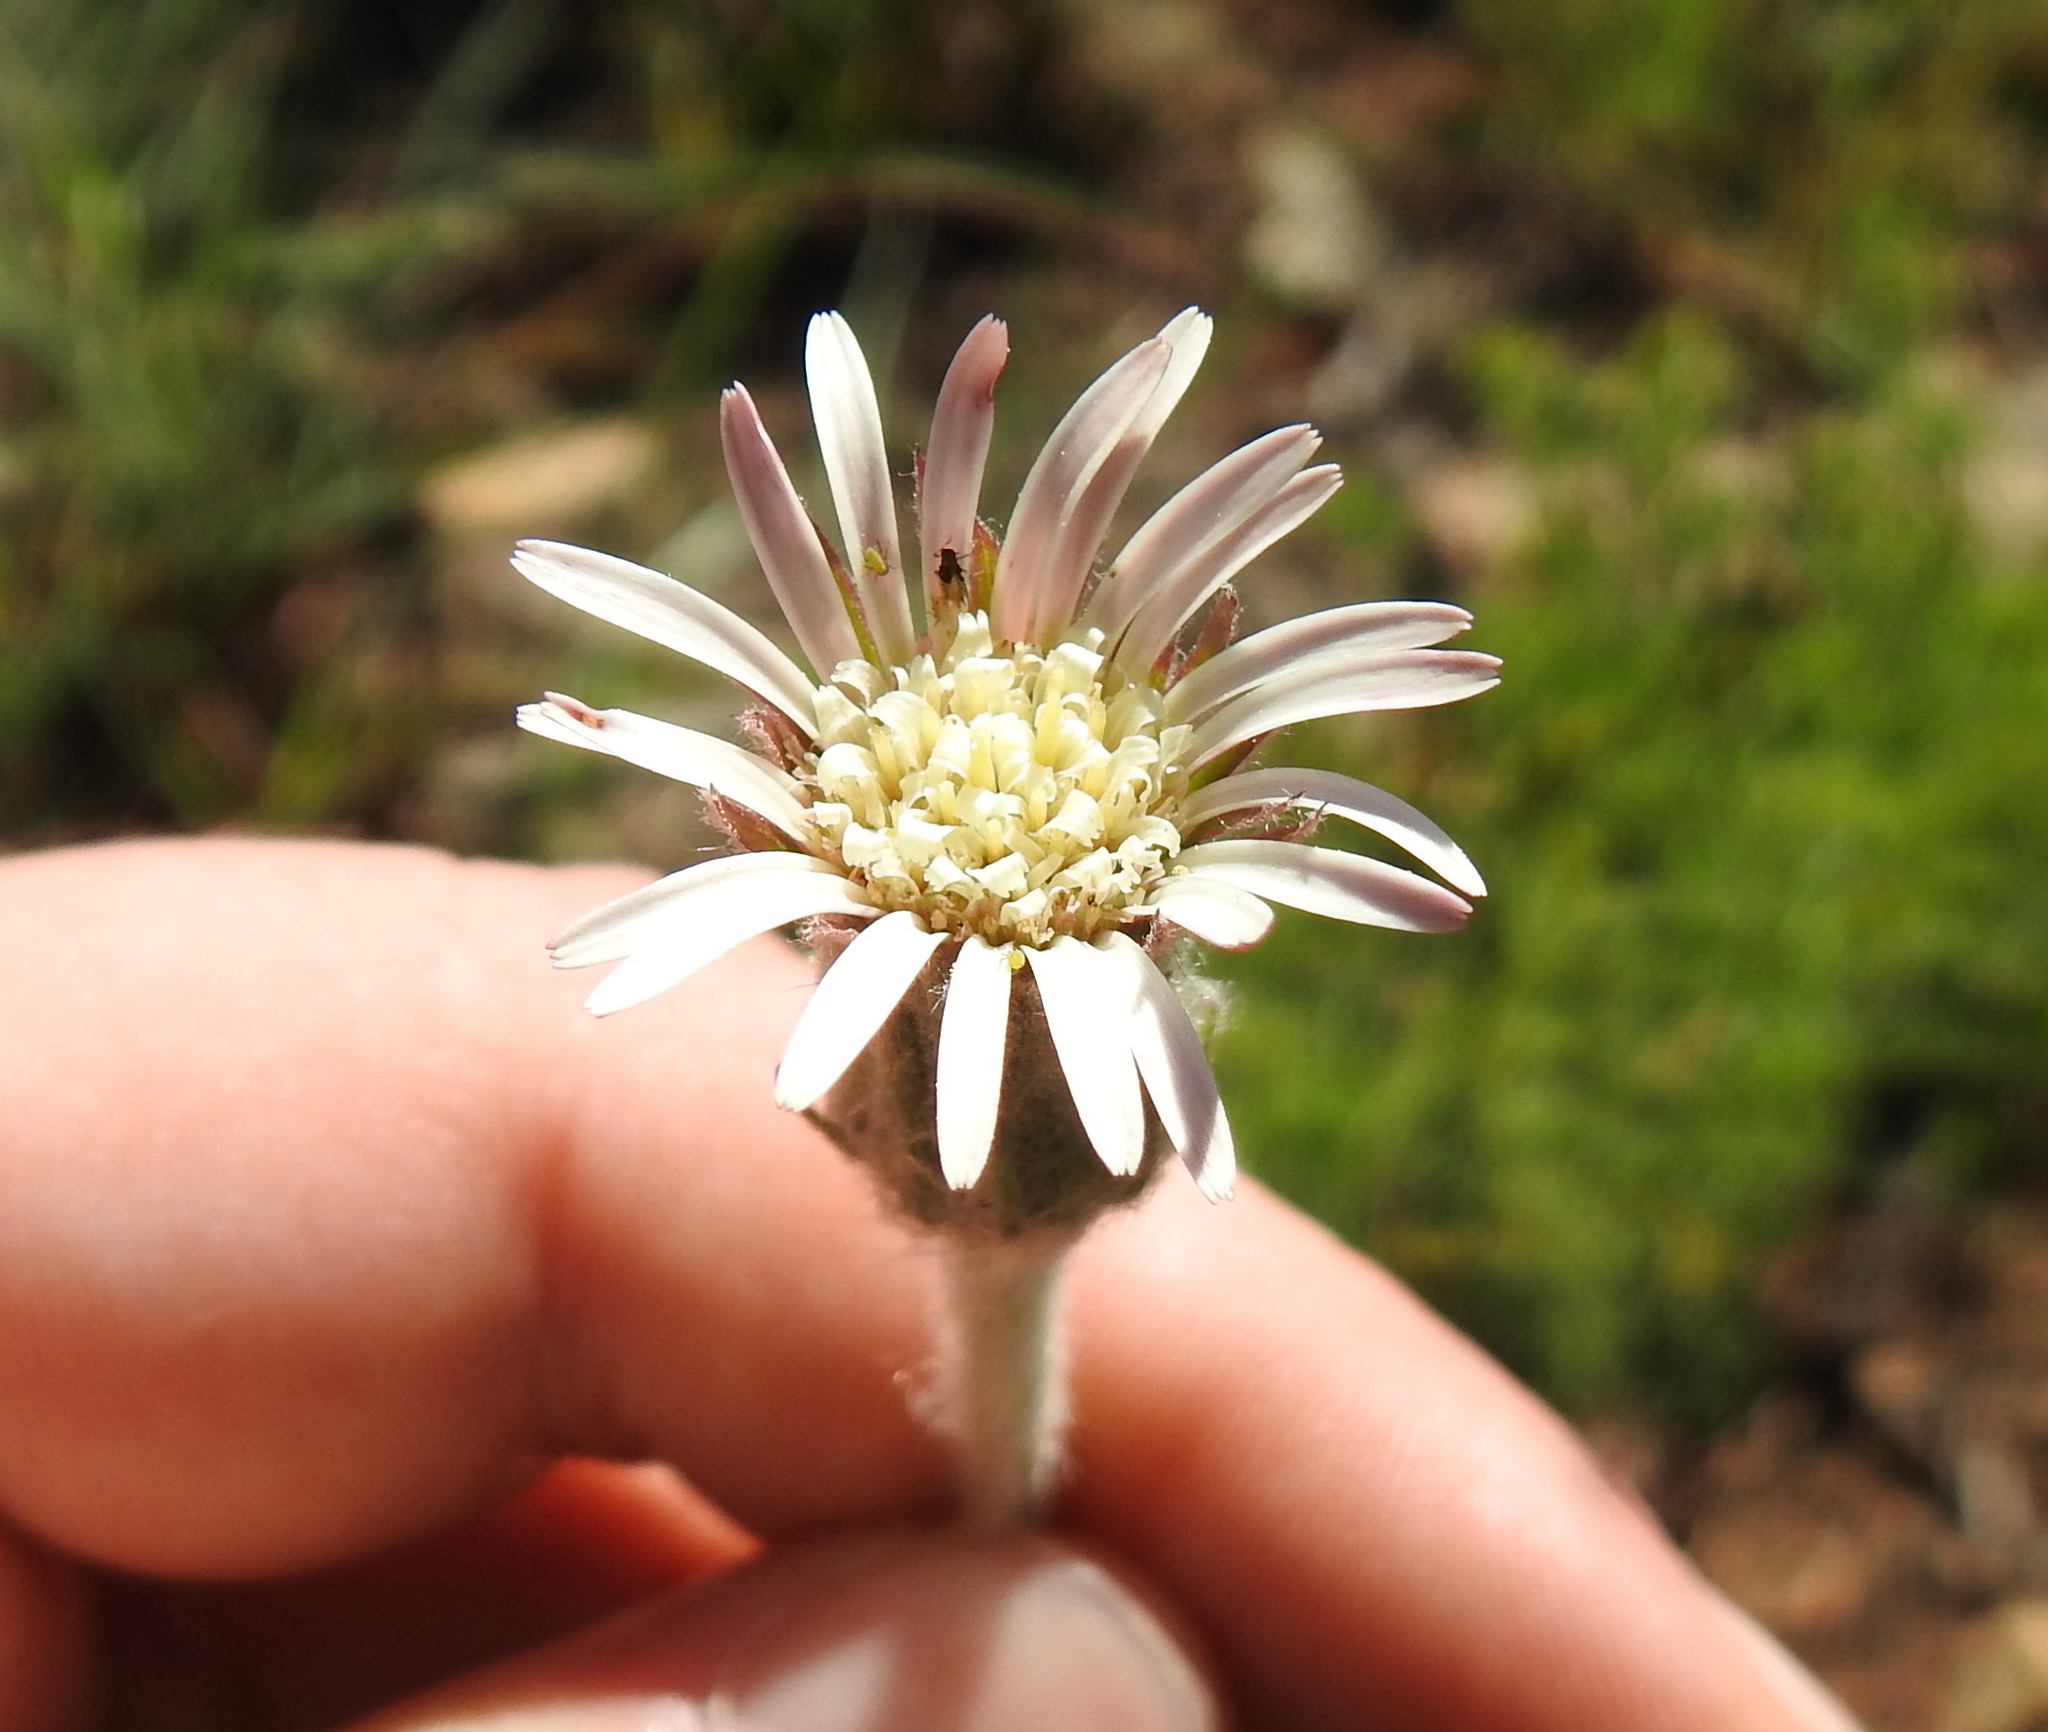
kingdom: Plantae
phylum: Tracheophyta
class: Magnoliopsida
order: Asterales
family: Asteraceae
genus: Gerbera
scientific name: Gerbera viridifolia
